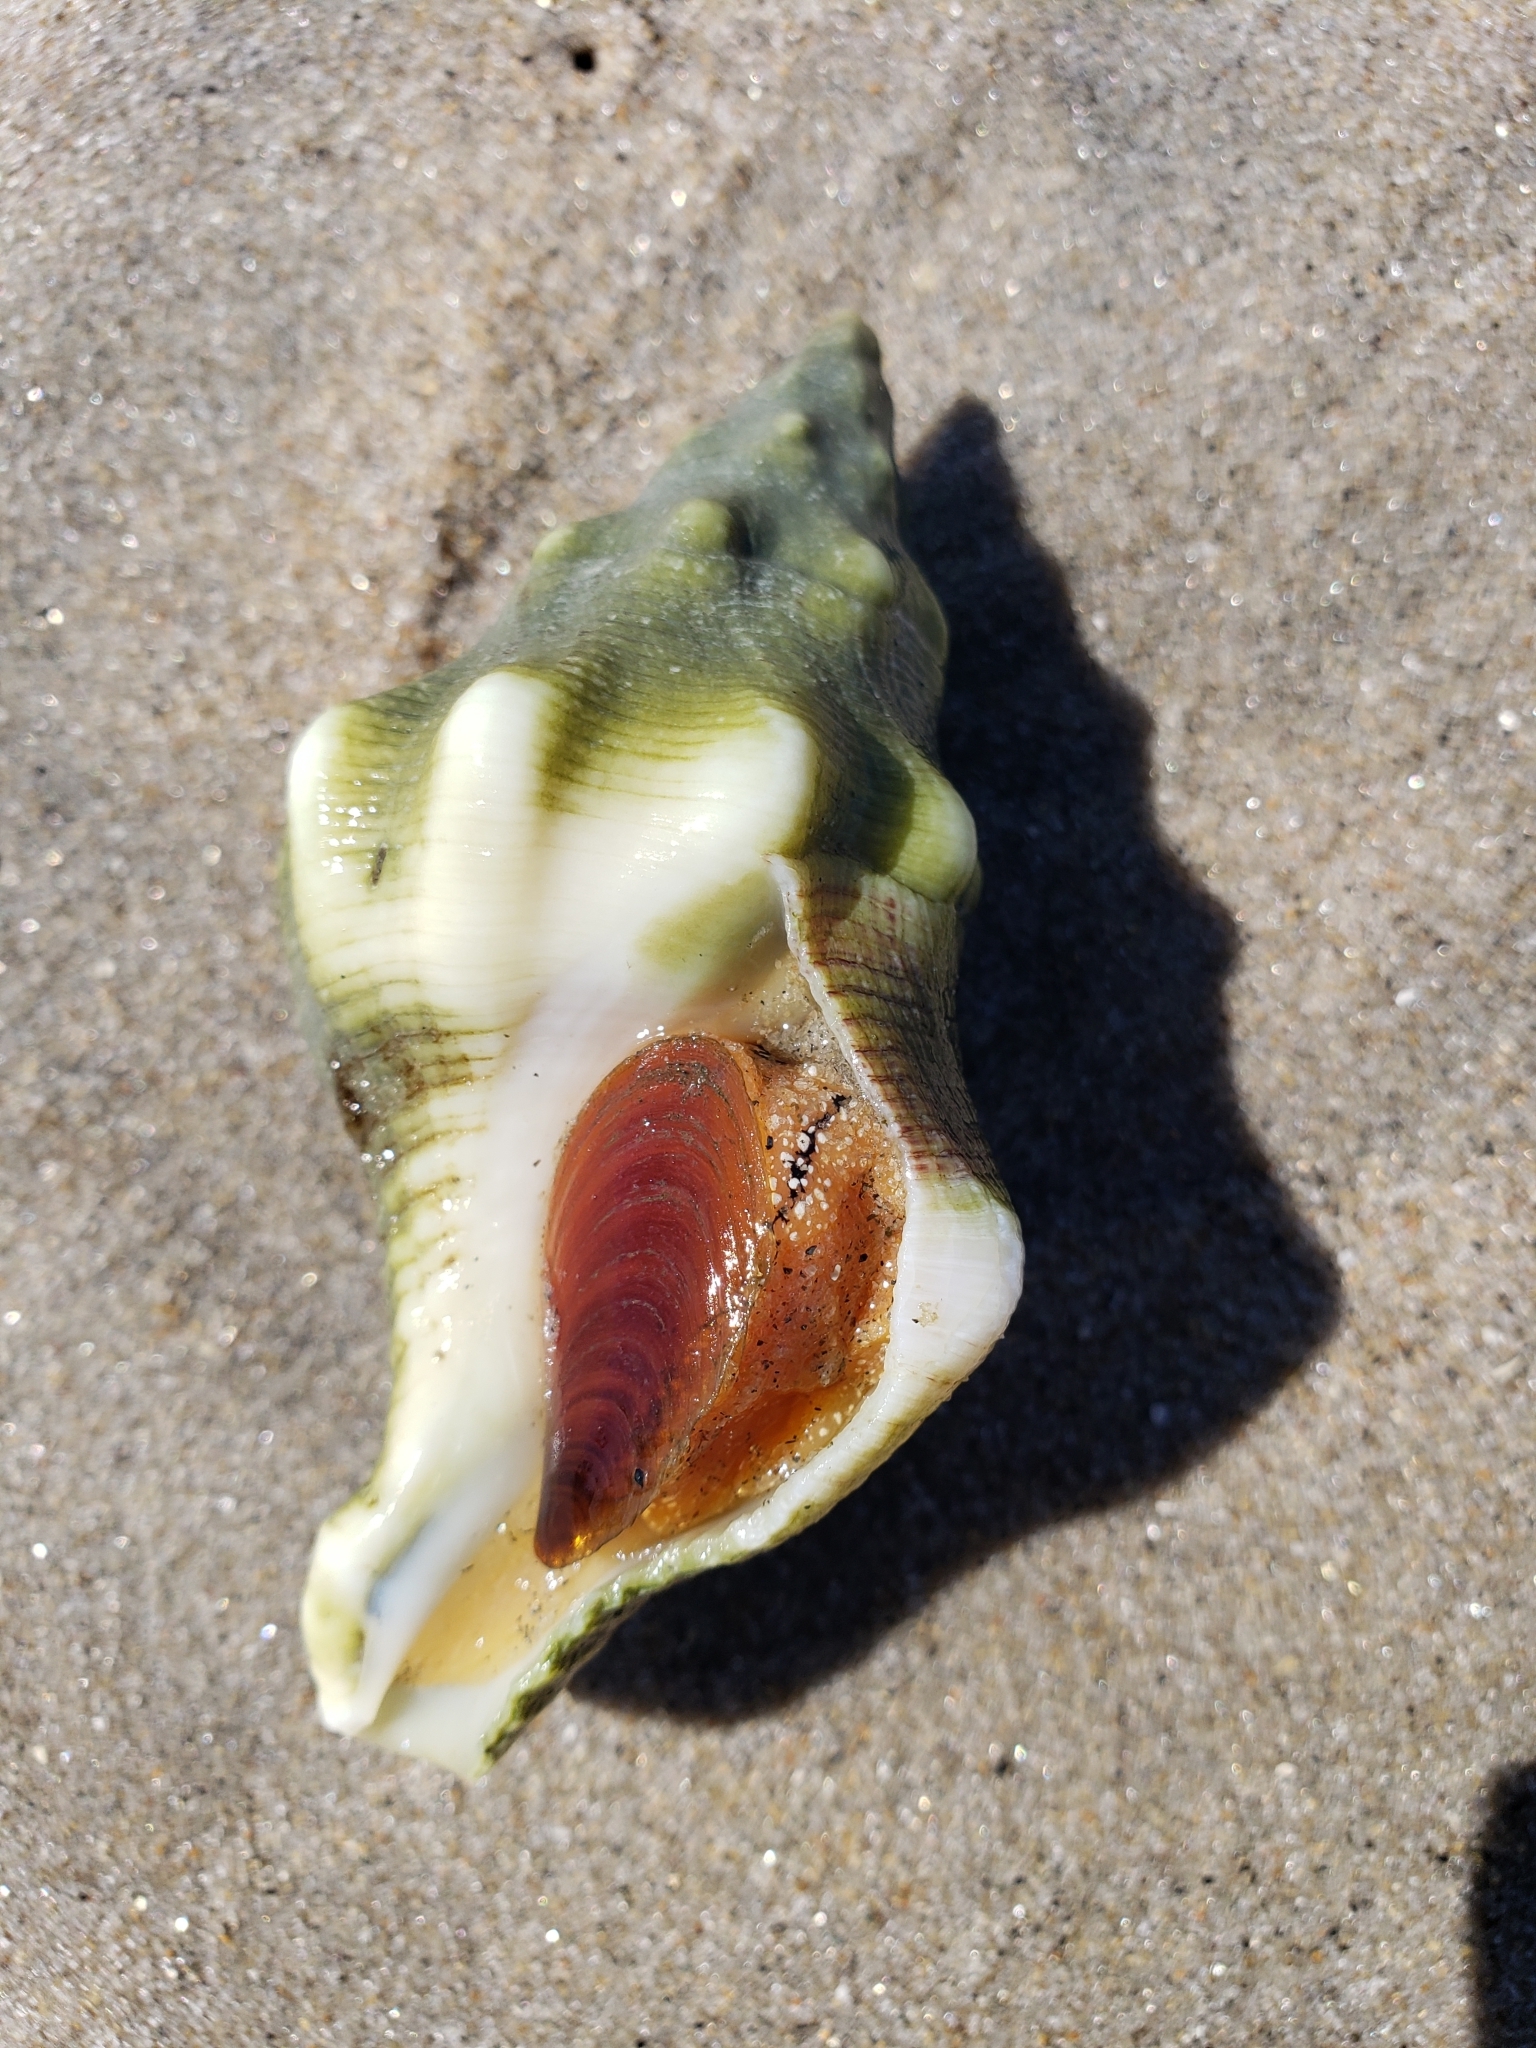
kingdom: Animalia
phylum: Mollusca
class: Gastropoda
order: Neogastropoda
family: Austrosiphonidae
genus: Kelletia
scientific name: Kelletia kelletii
